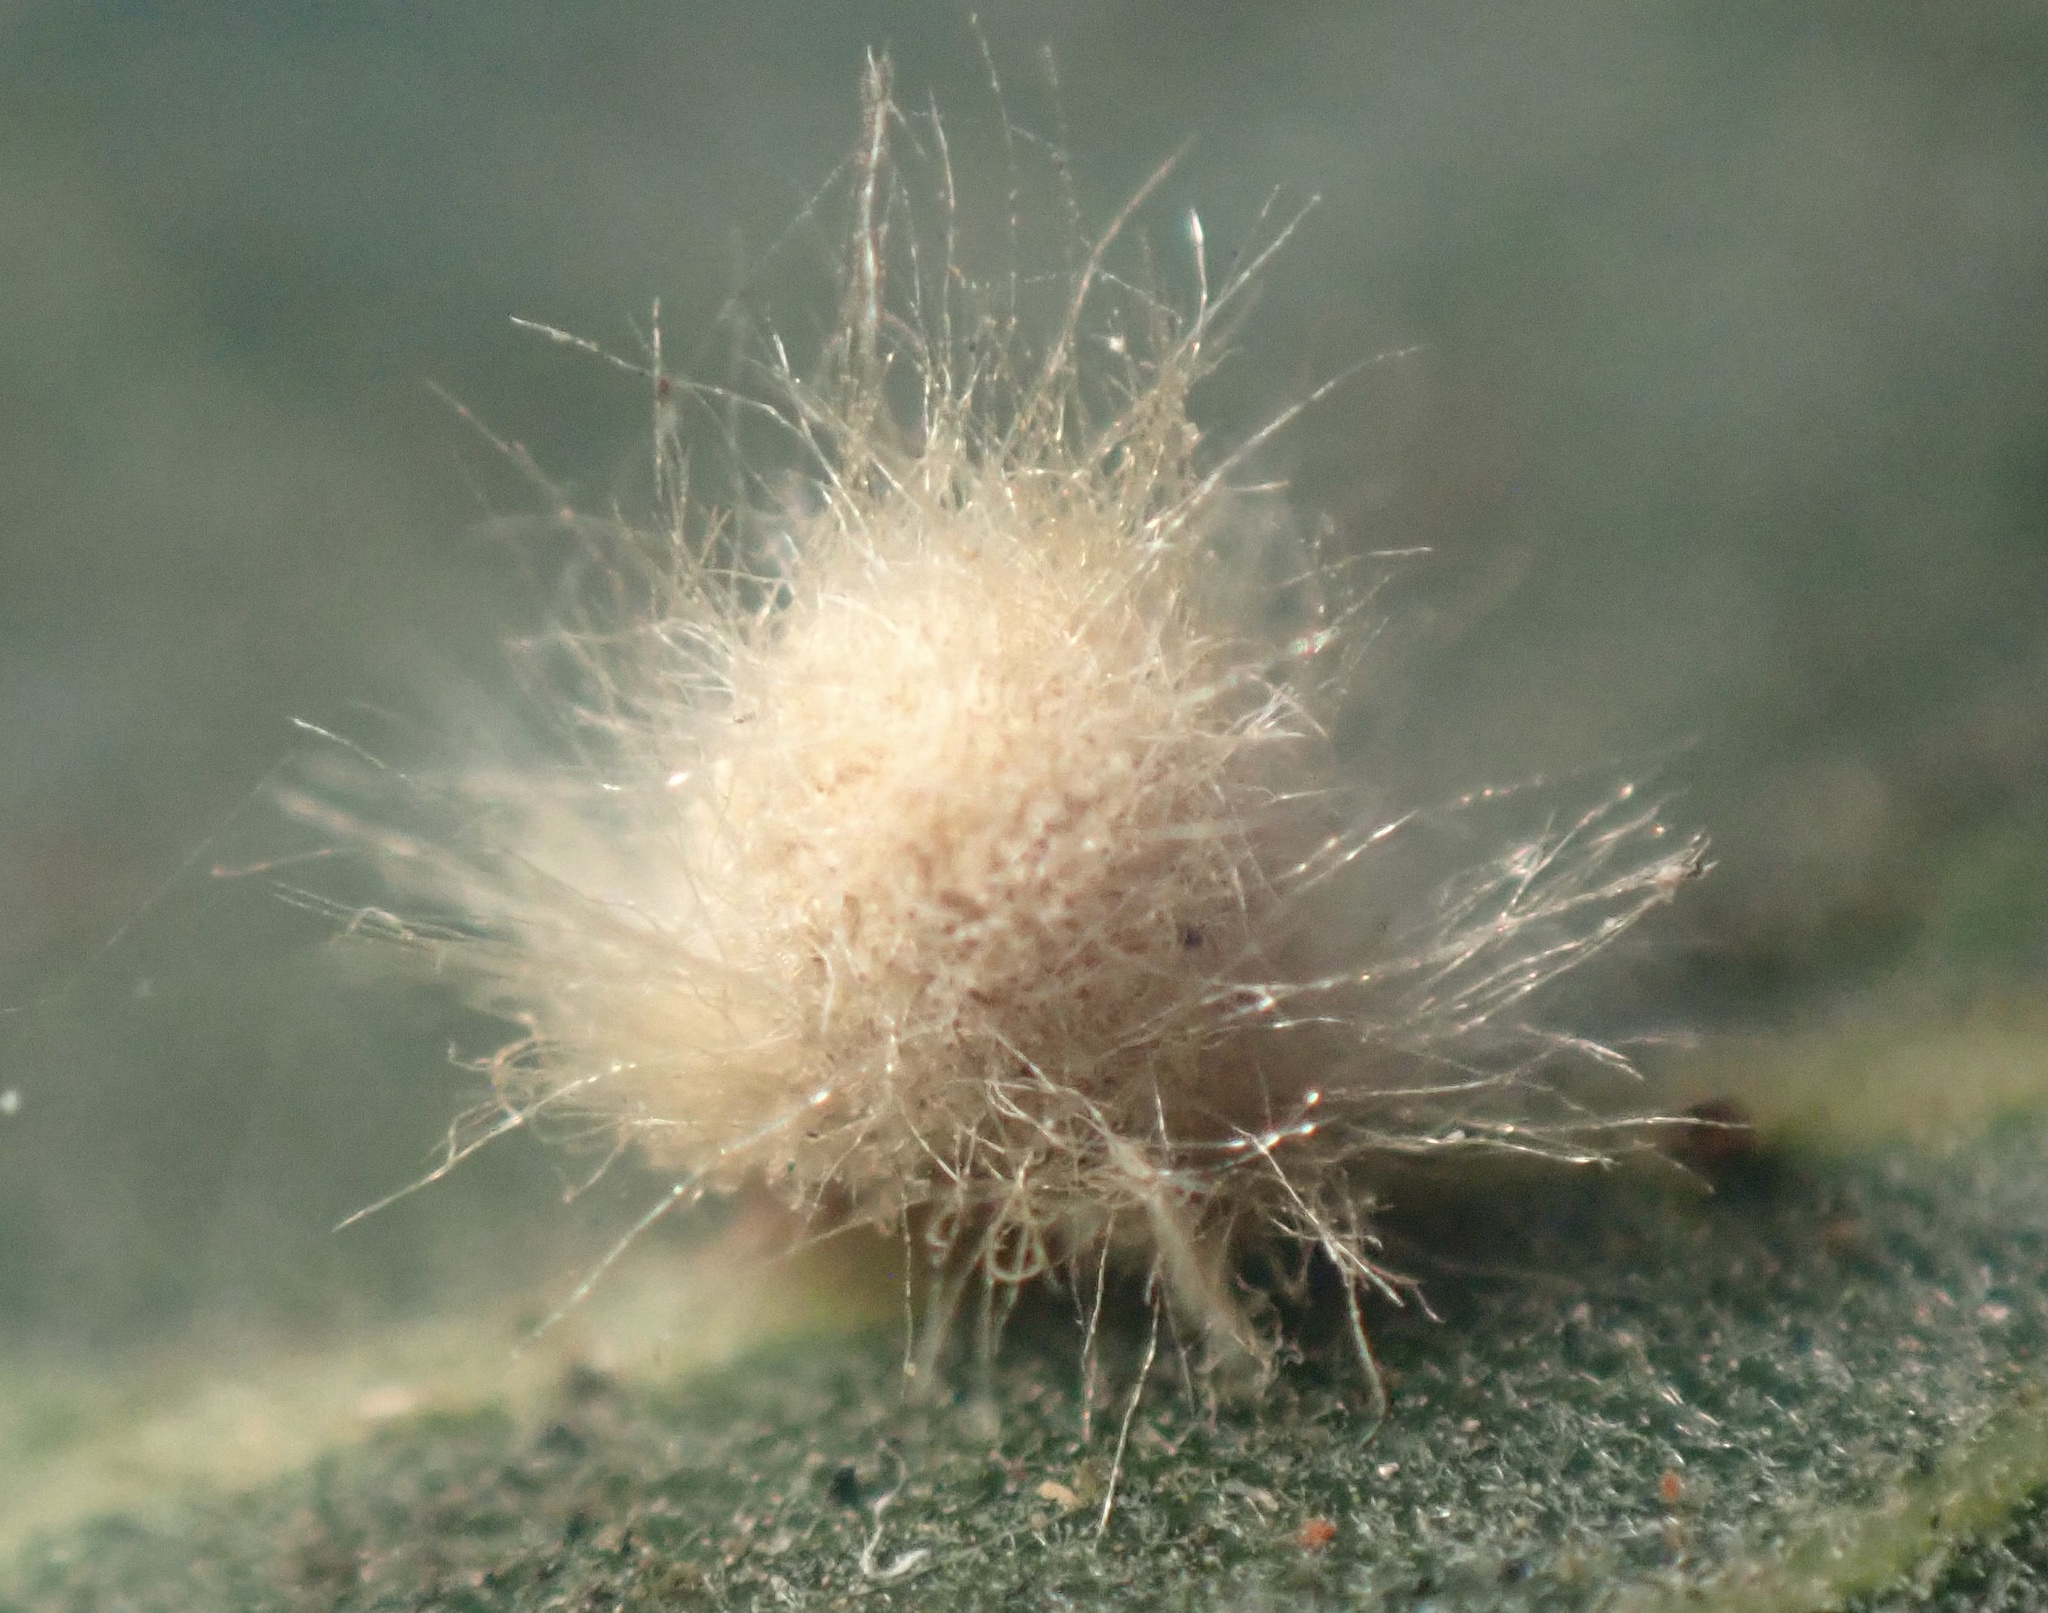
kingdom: Animalia
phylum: Arthropoda
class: Insecta
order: Hymenoptera
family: Cynipidae
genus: Andricus
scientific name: Andricus Druon fullawayi
